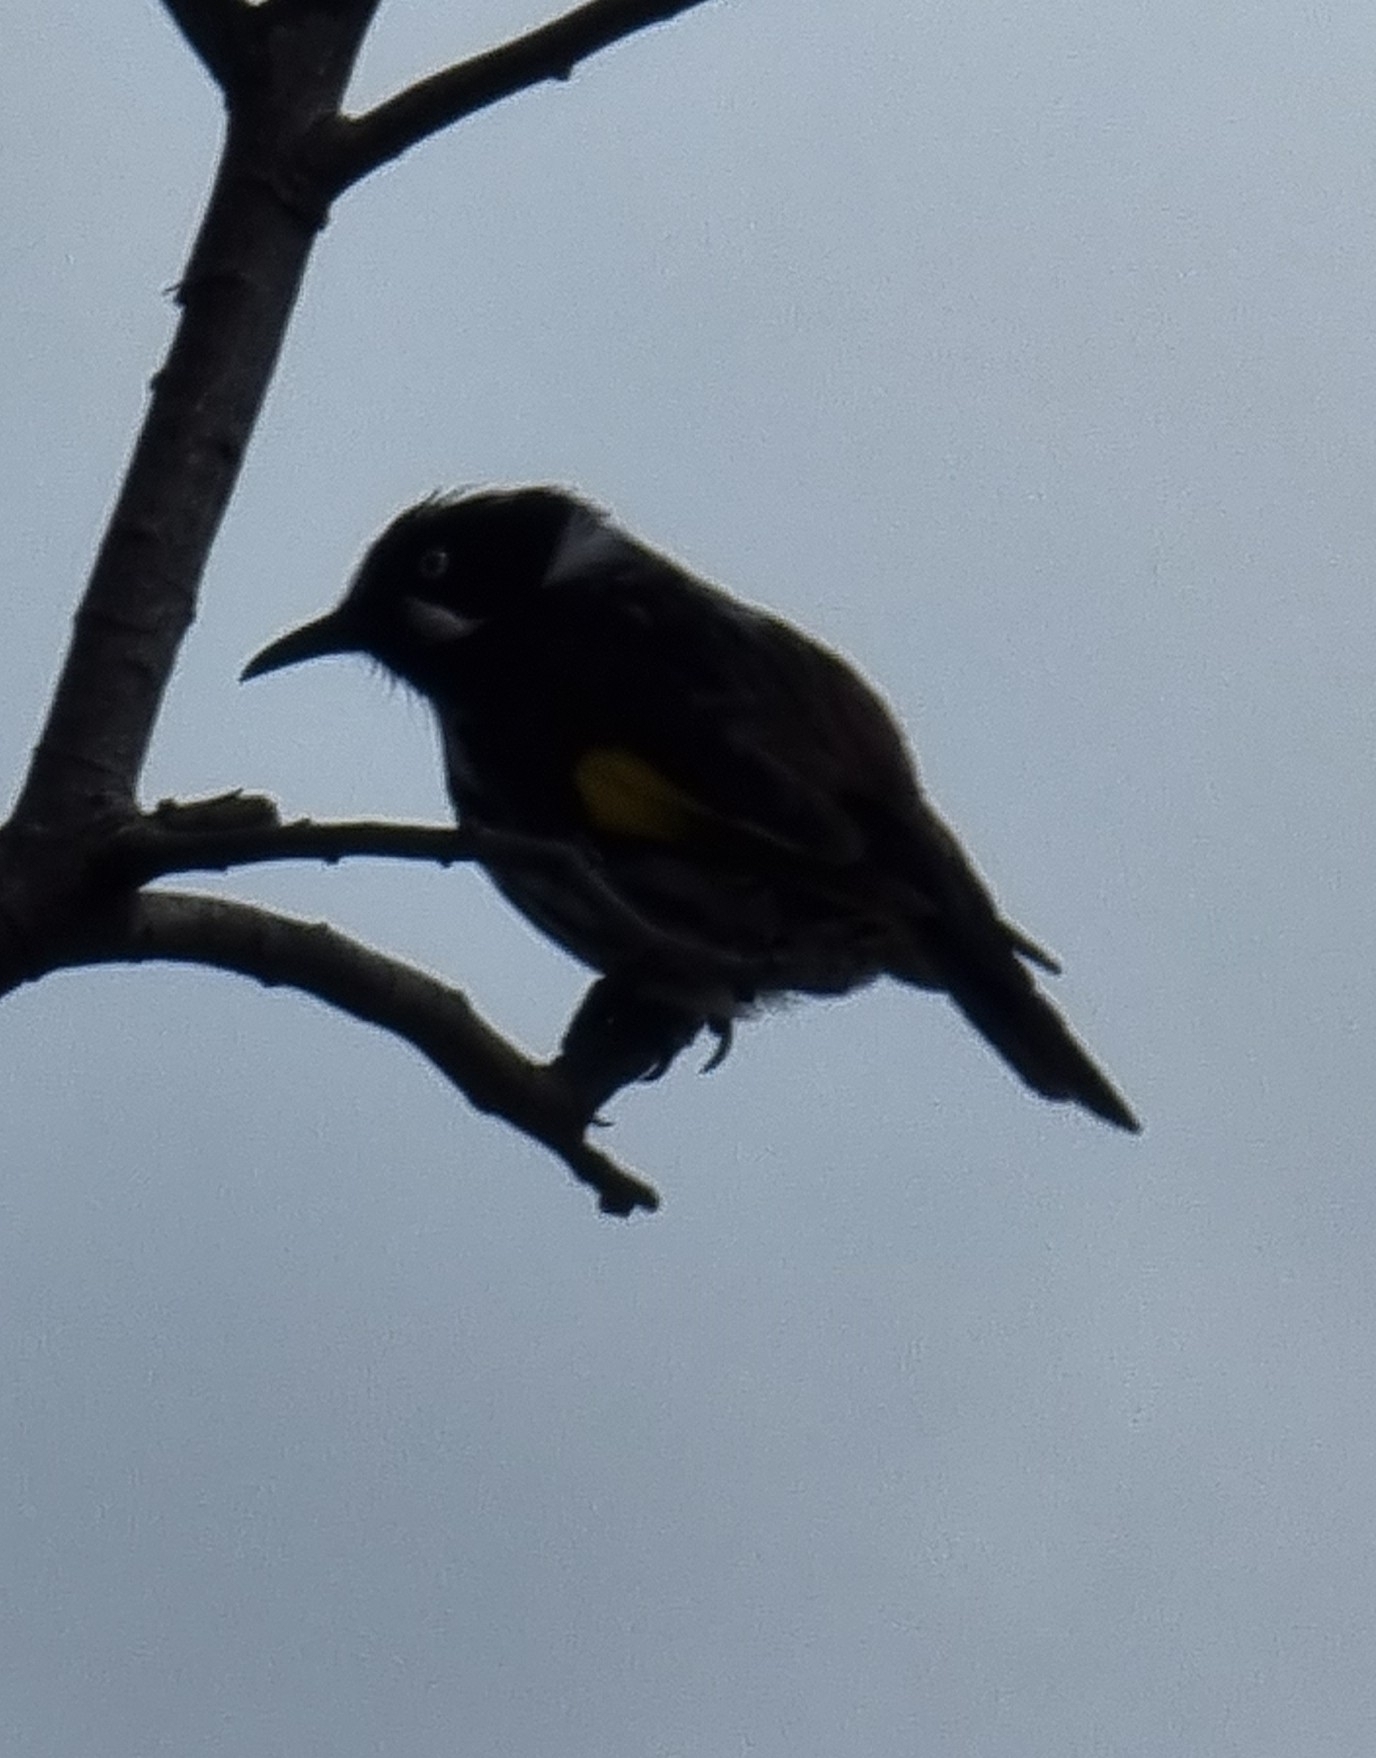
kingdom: Animalia
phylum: Chordata
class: Aves
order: Passeriformes
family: Meliphagidae
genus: Phylidonyris
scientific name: Phylidonyris novaehollandiae
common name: New holland honeyeater
